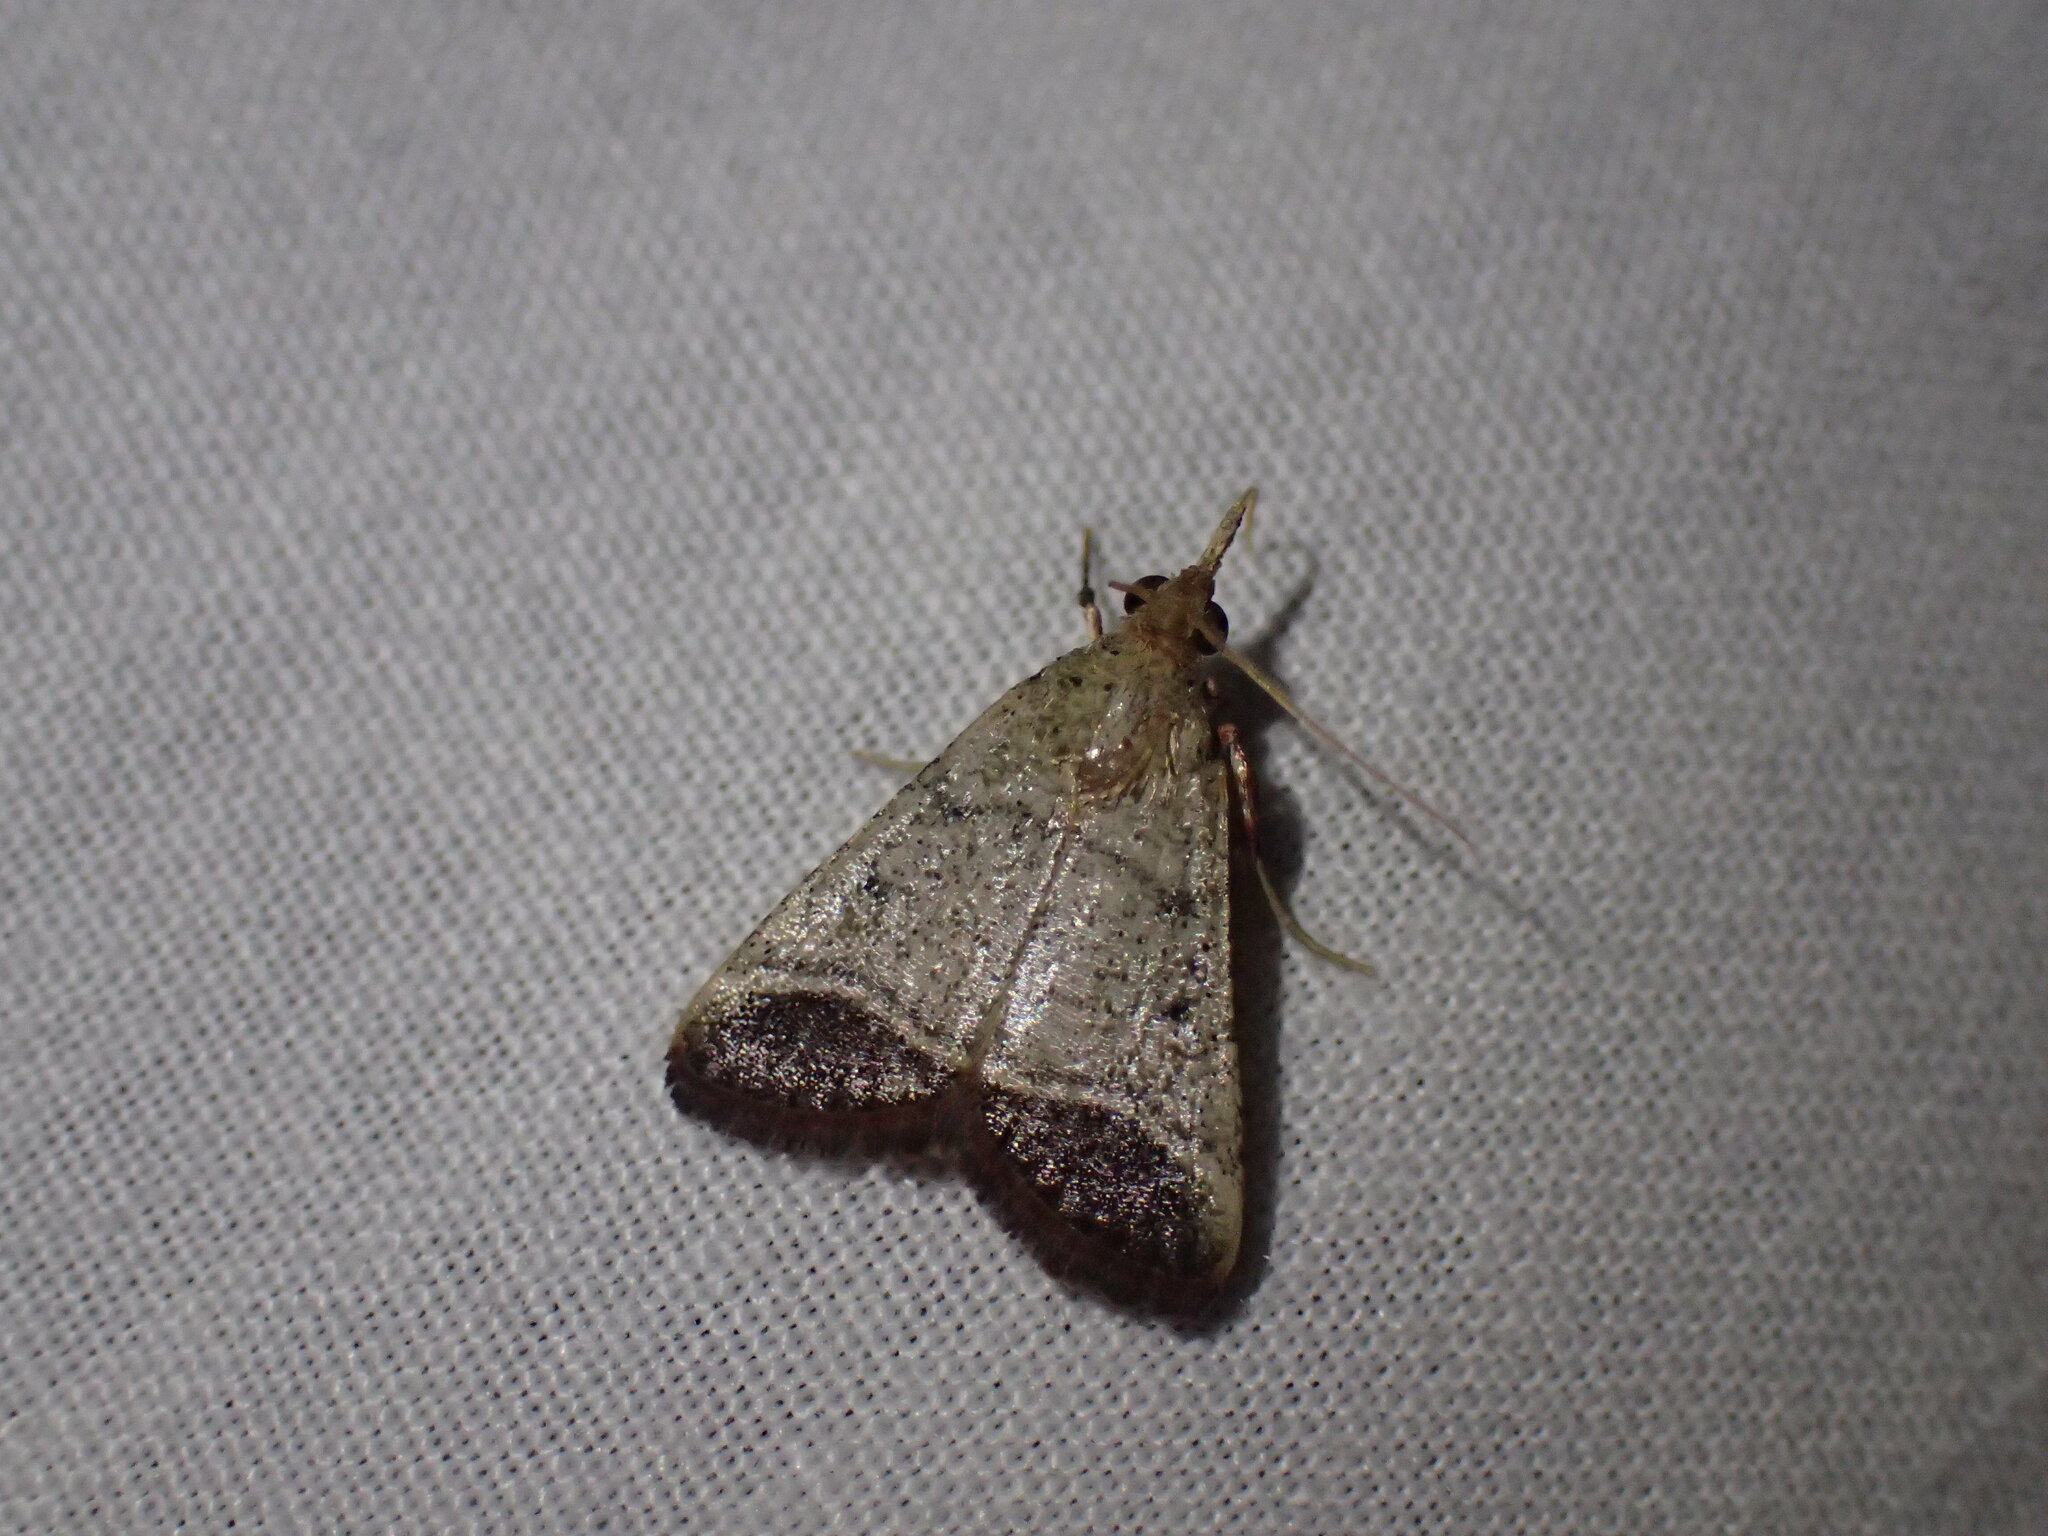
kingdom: Animalia
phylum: Arthropoda
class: Insecta
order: Lepidoptera
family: Pyralidae
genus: Tegulifera
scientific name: Tegulifera Sphalerosticha oblunata
